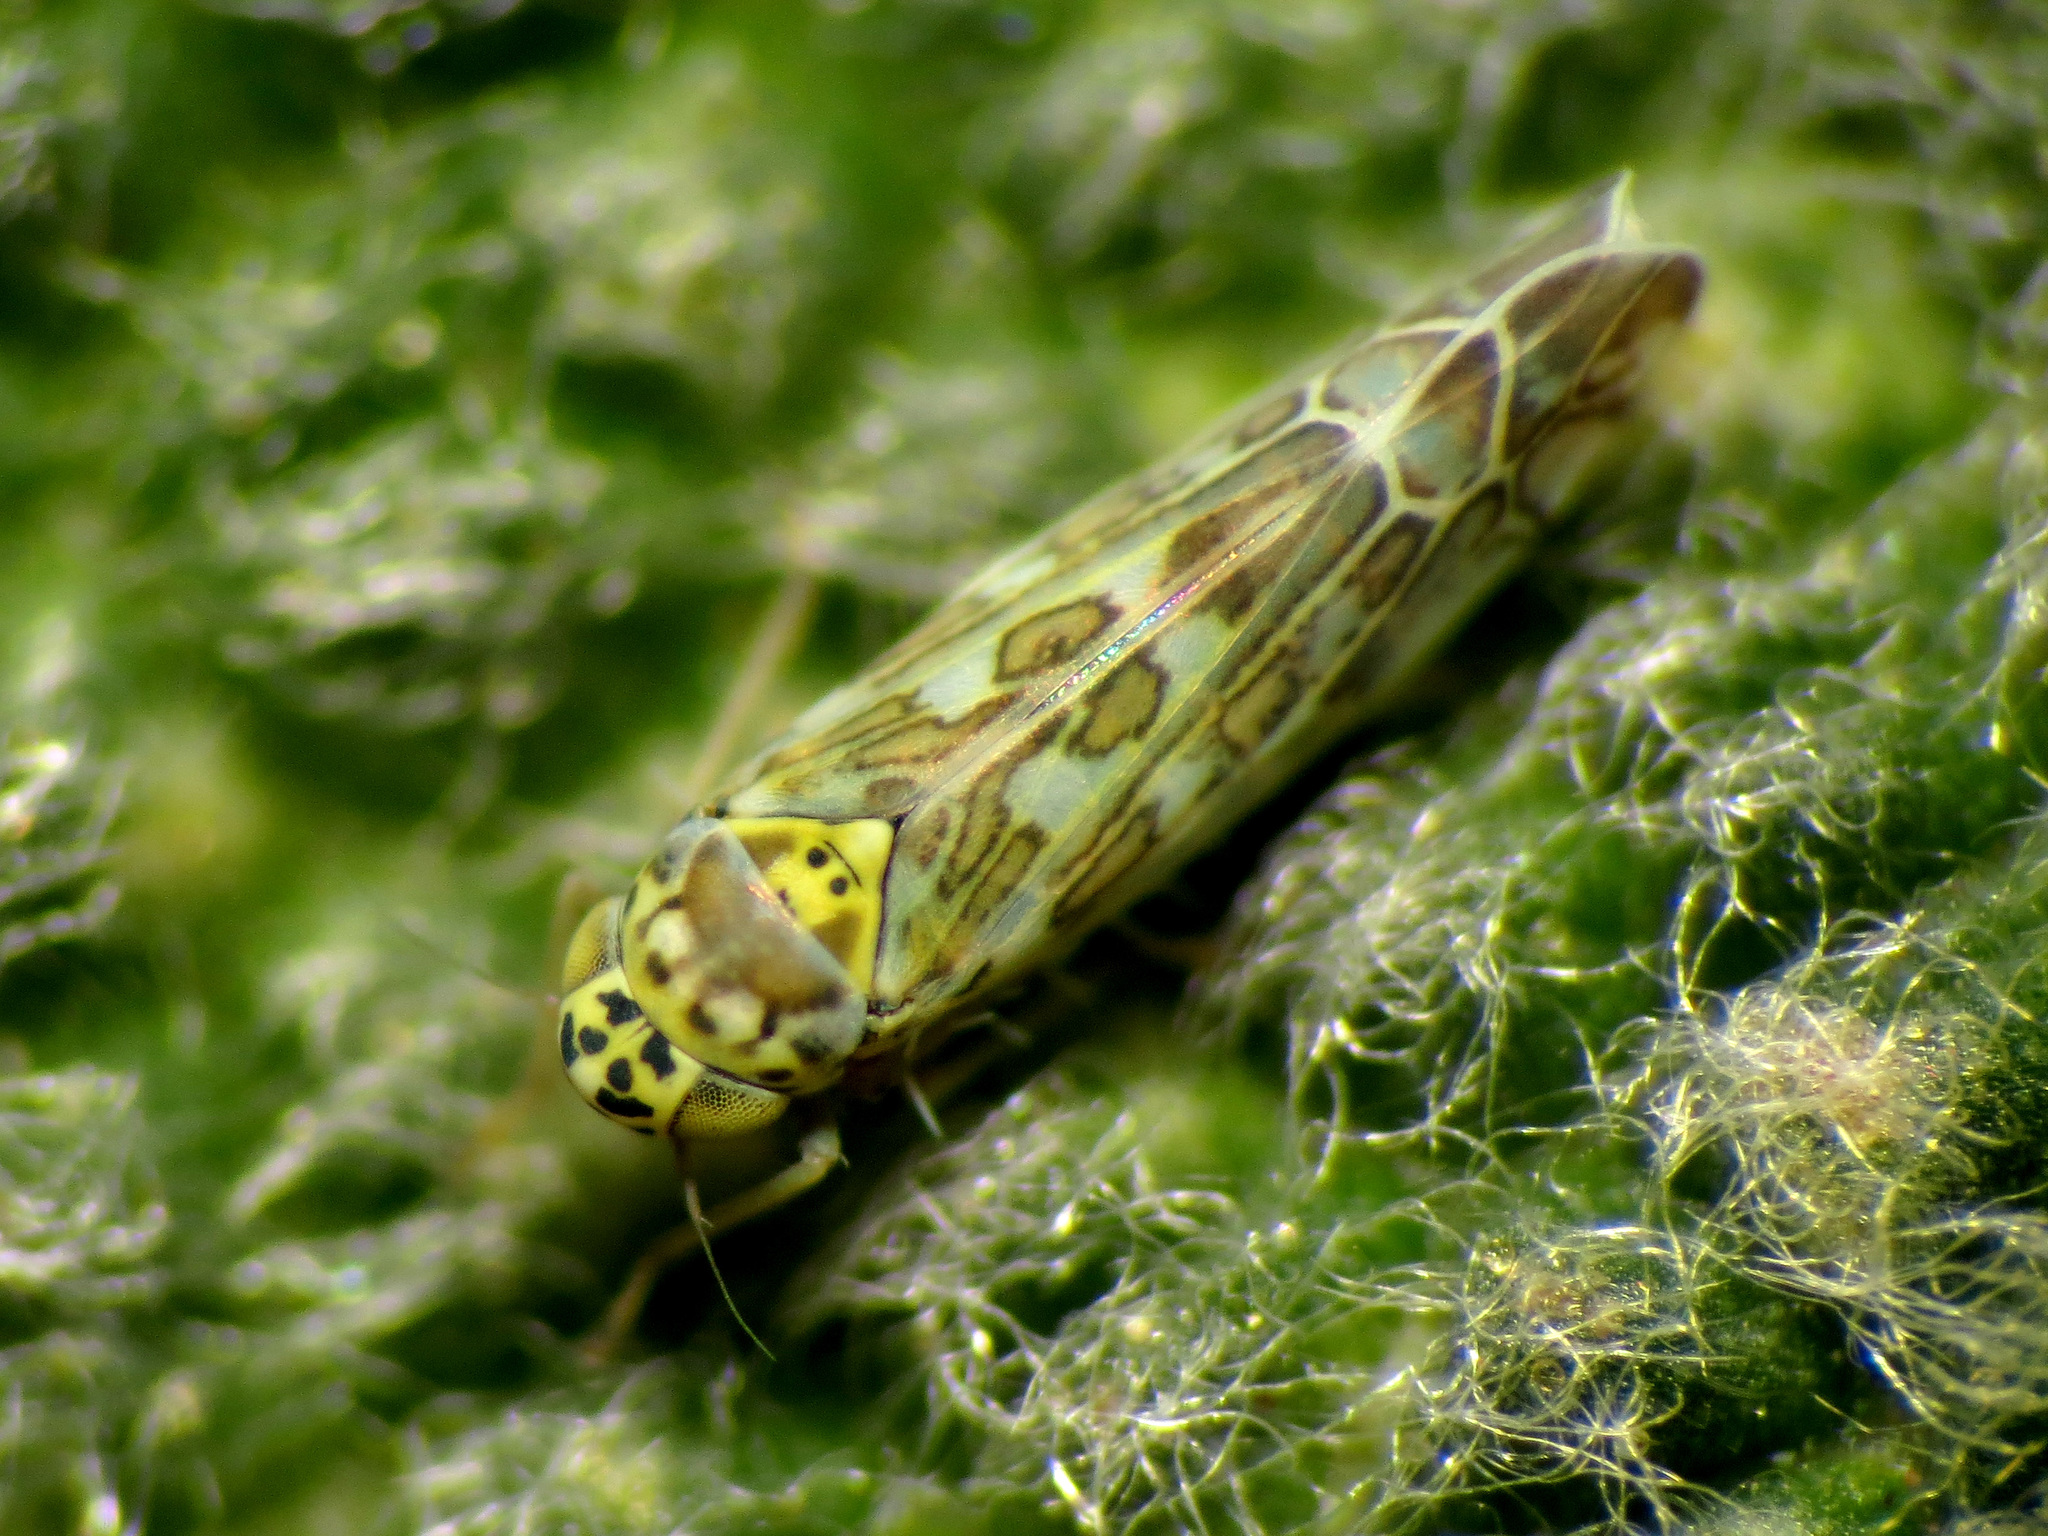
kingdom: Animalia
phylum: Arthropoda
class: Insecta
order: Hemiptera
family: Cicadellidae
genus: Eupteryx
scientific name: Eupteryx decemnotata
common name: Ligurian leafhopper
